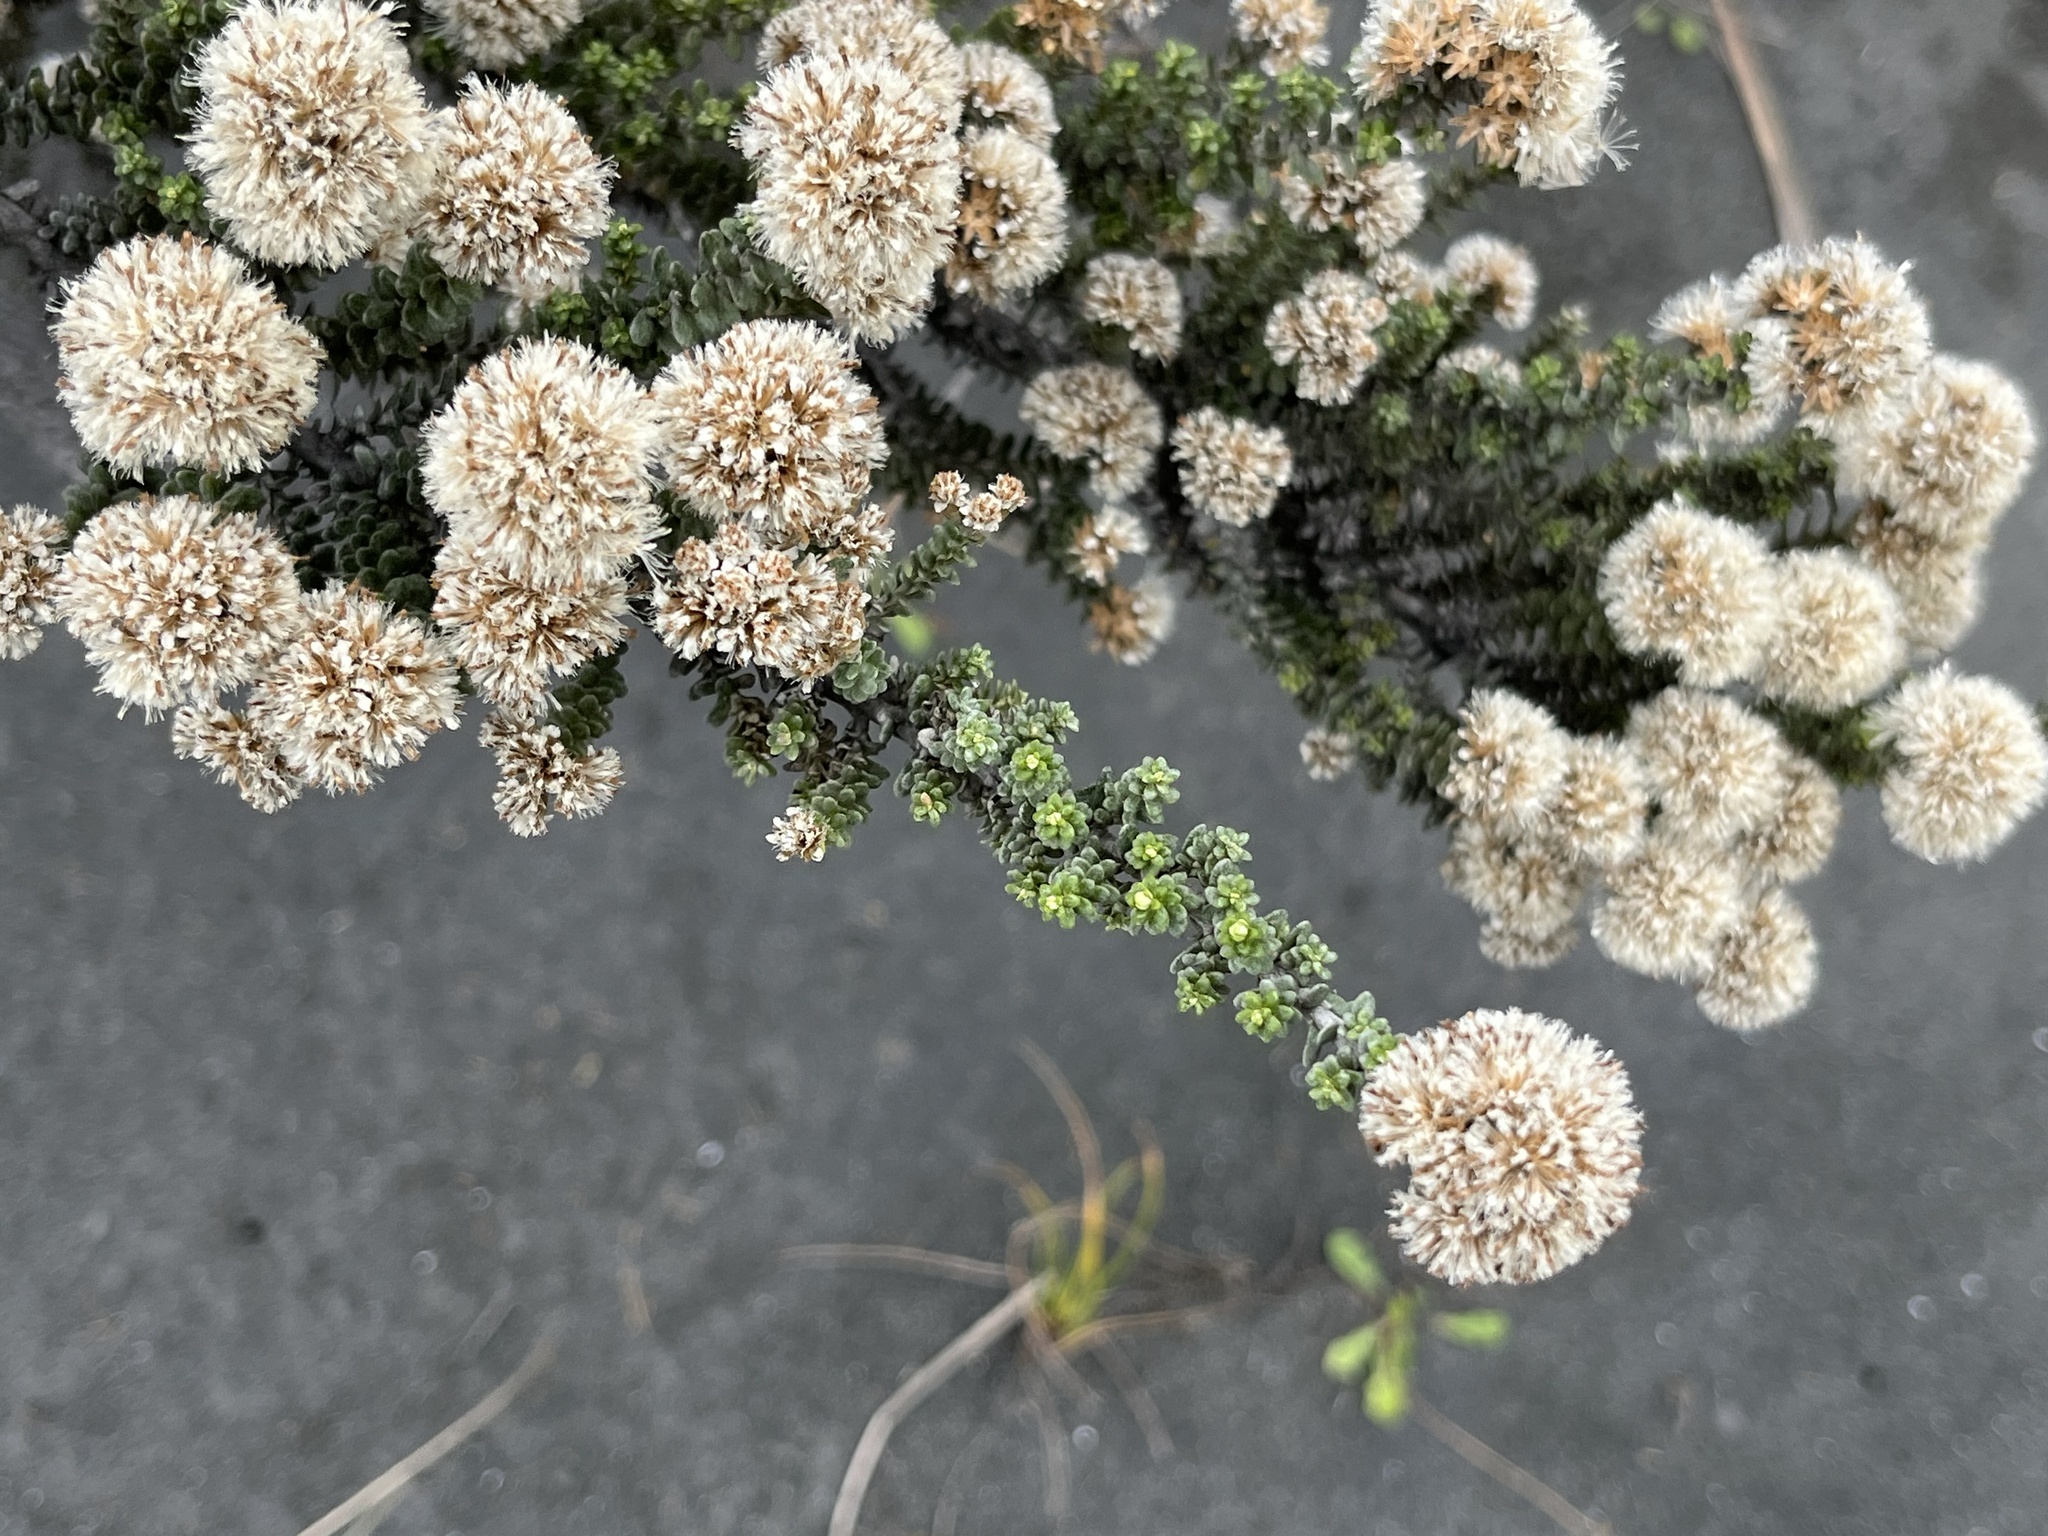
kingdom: Plantae
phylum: Tracheophyta
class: Magnoliopsida
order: Asterales
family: Asteraceae
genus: Ozothamnus
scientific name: Ozothamnus leptophyllus
